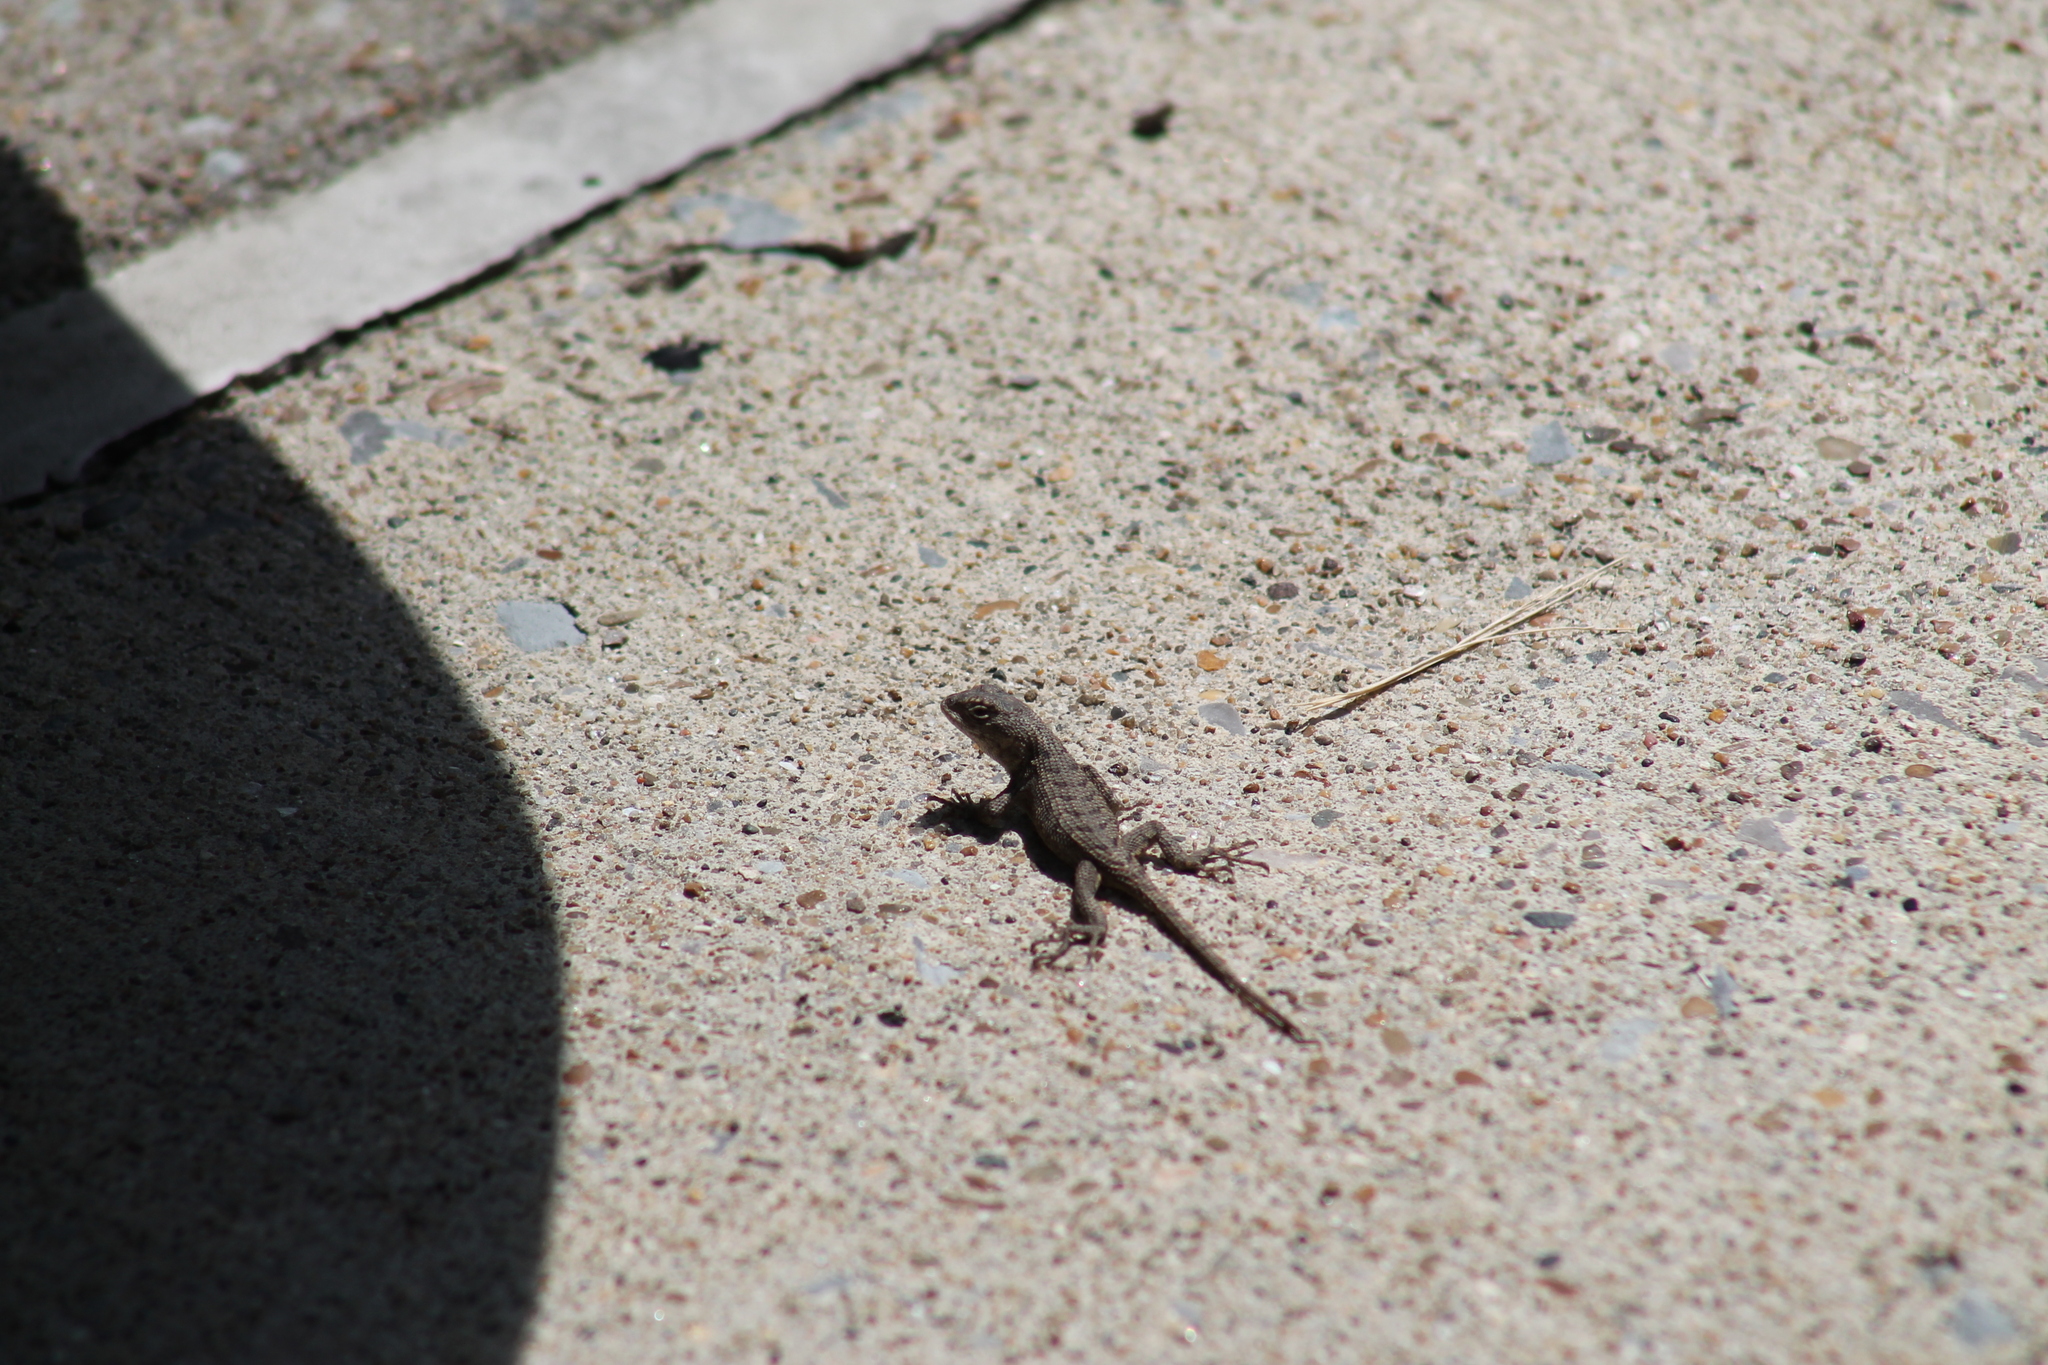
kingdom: Animalia
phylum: Chordata
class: Squamata
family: Phrynosomatidae
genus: Sceloporus
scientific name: Sceloporus undulatus
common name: Eastern fence lizard
